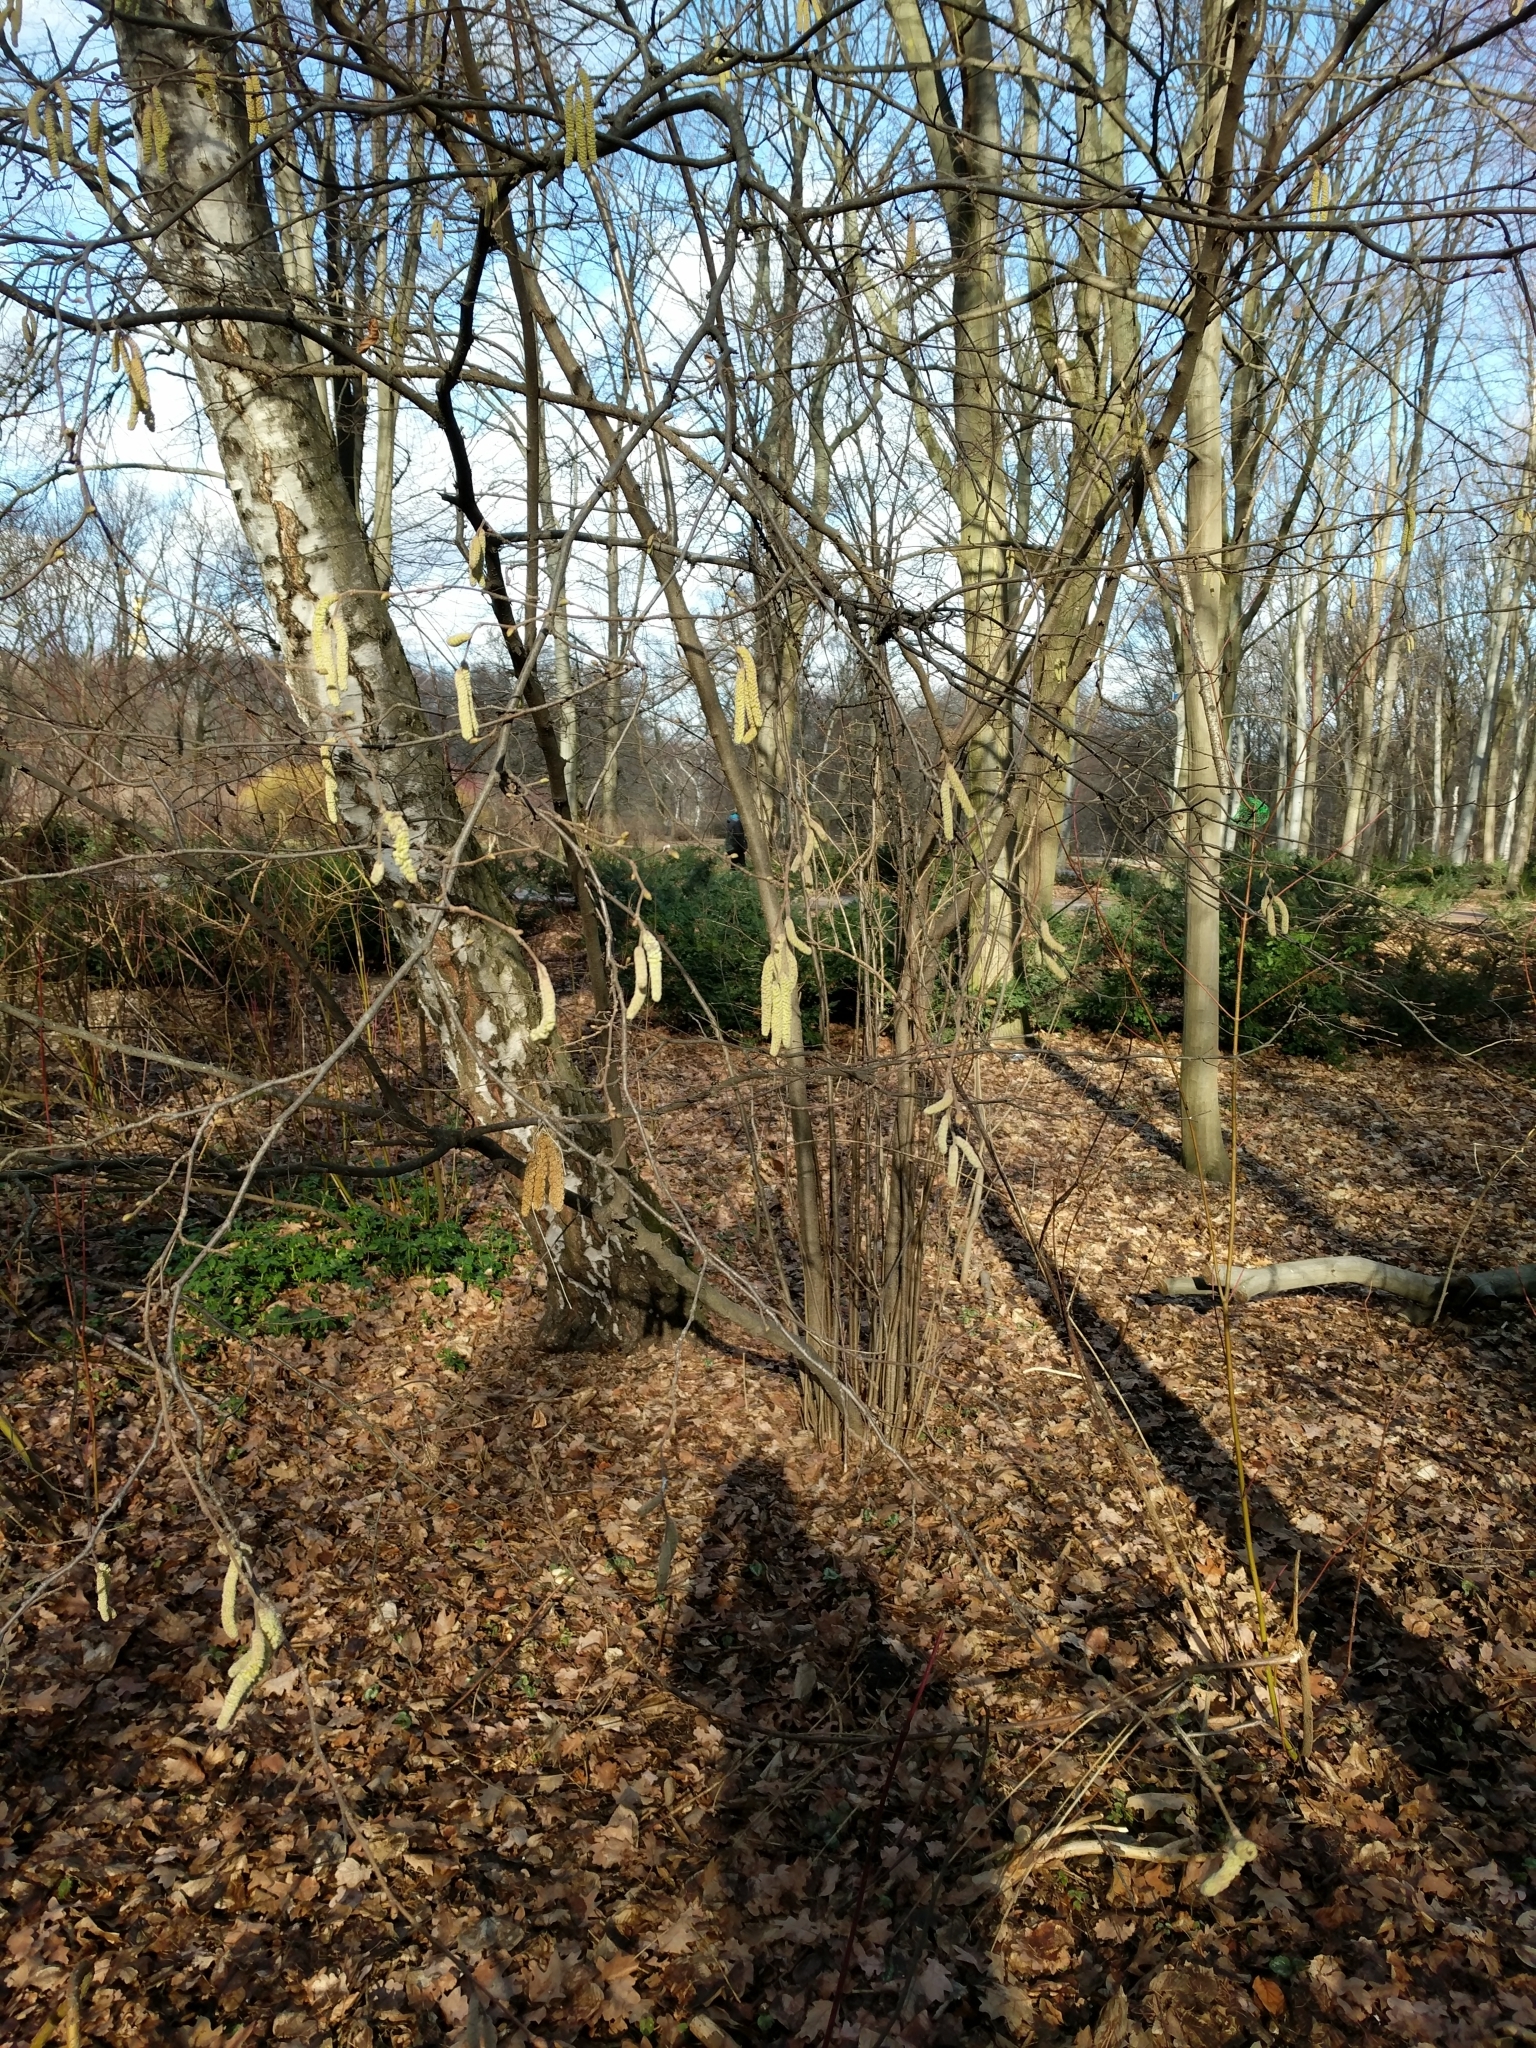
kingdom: Plantae
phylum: Tracheophyta
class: Magnoliopsida
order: Fagales
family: Betulaceae
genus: Corylus
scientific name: Corylus avellana
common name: European hazel
